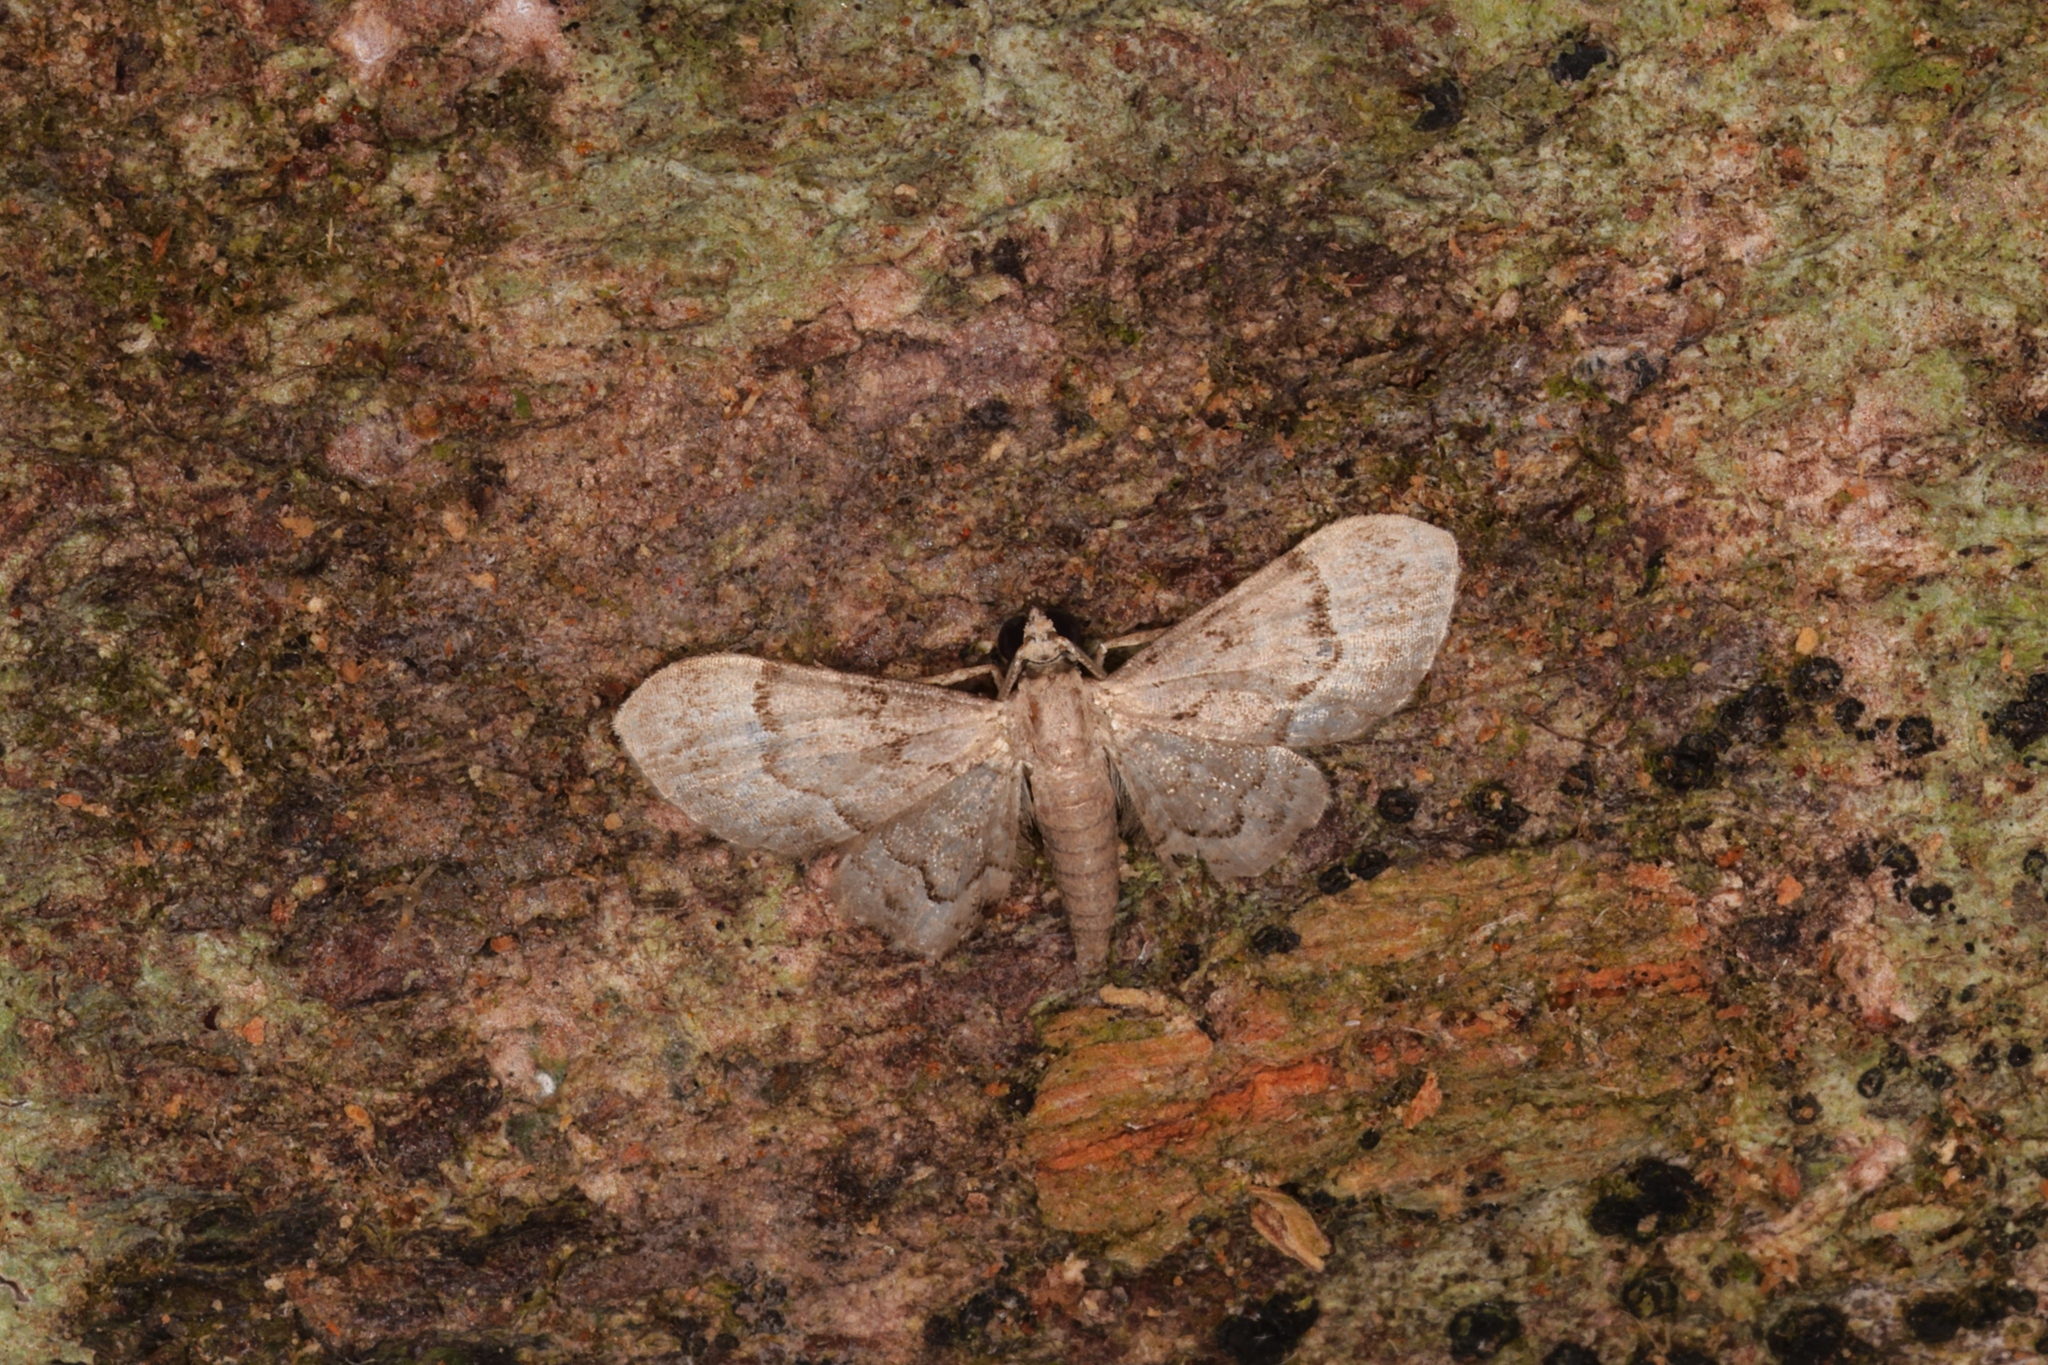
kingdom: Animalia
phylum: Arthropoda
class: Insecta
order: Lepidoptera
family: Geometridae
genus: Glaucoclystis
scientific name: Glaucoclystis sinuosa
